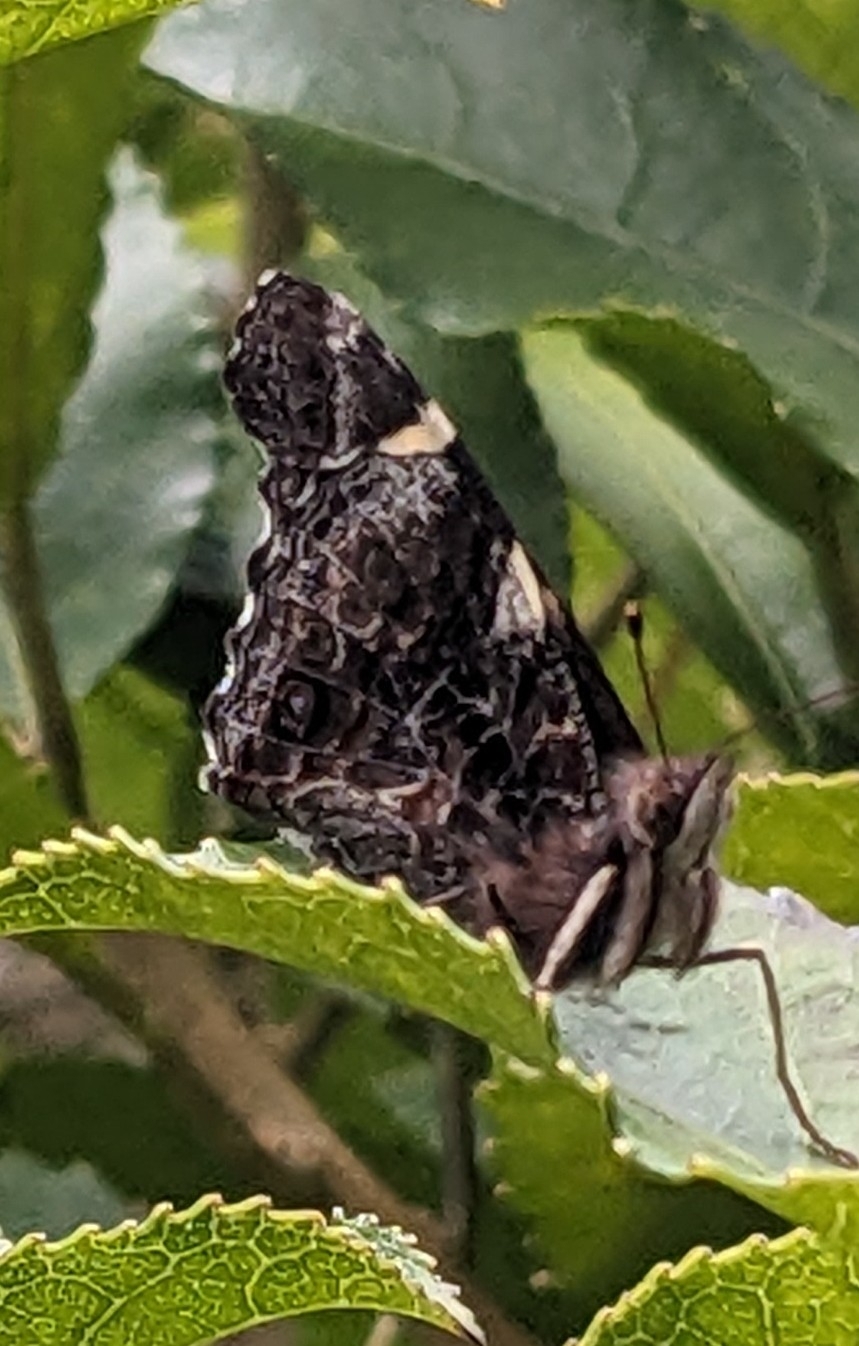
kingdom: Animalia
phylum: Arthropoda
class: Insecta
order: Lepidoptera
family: Nymphalidae
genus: Vanessa
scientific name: Vanessa itea
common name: Yellow admiral
